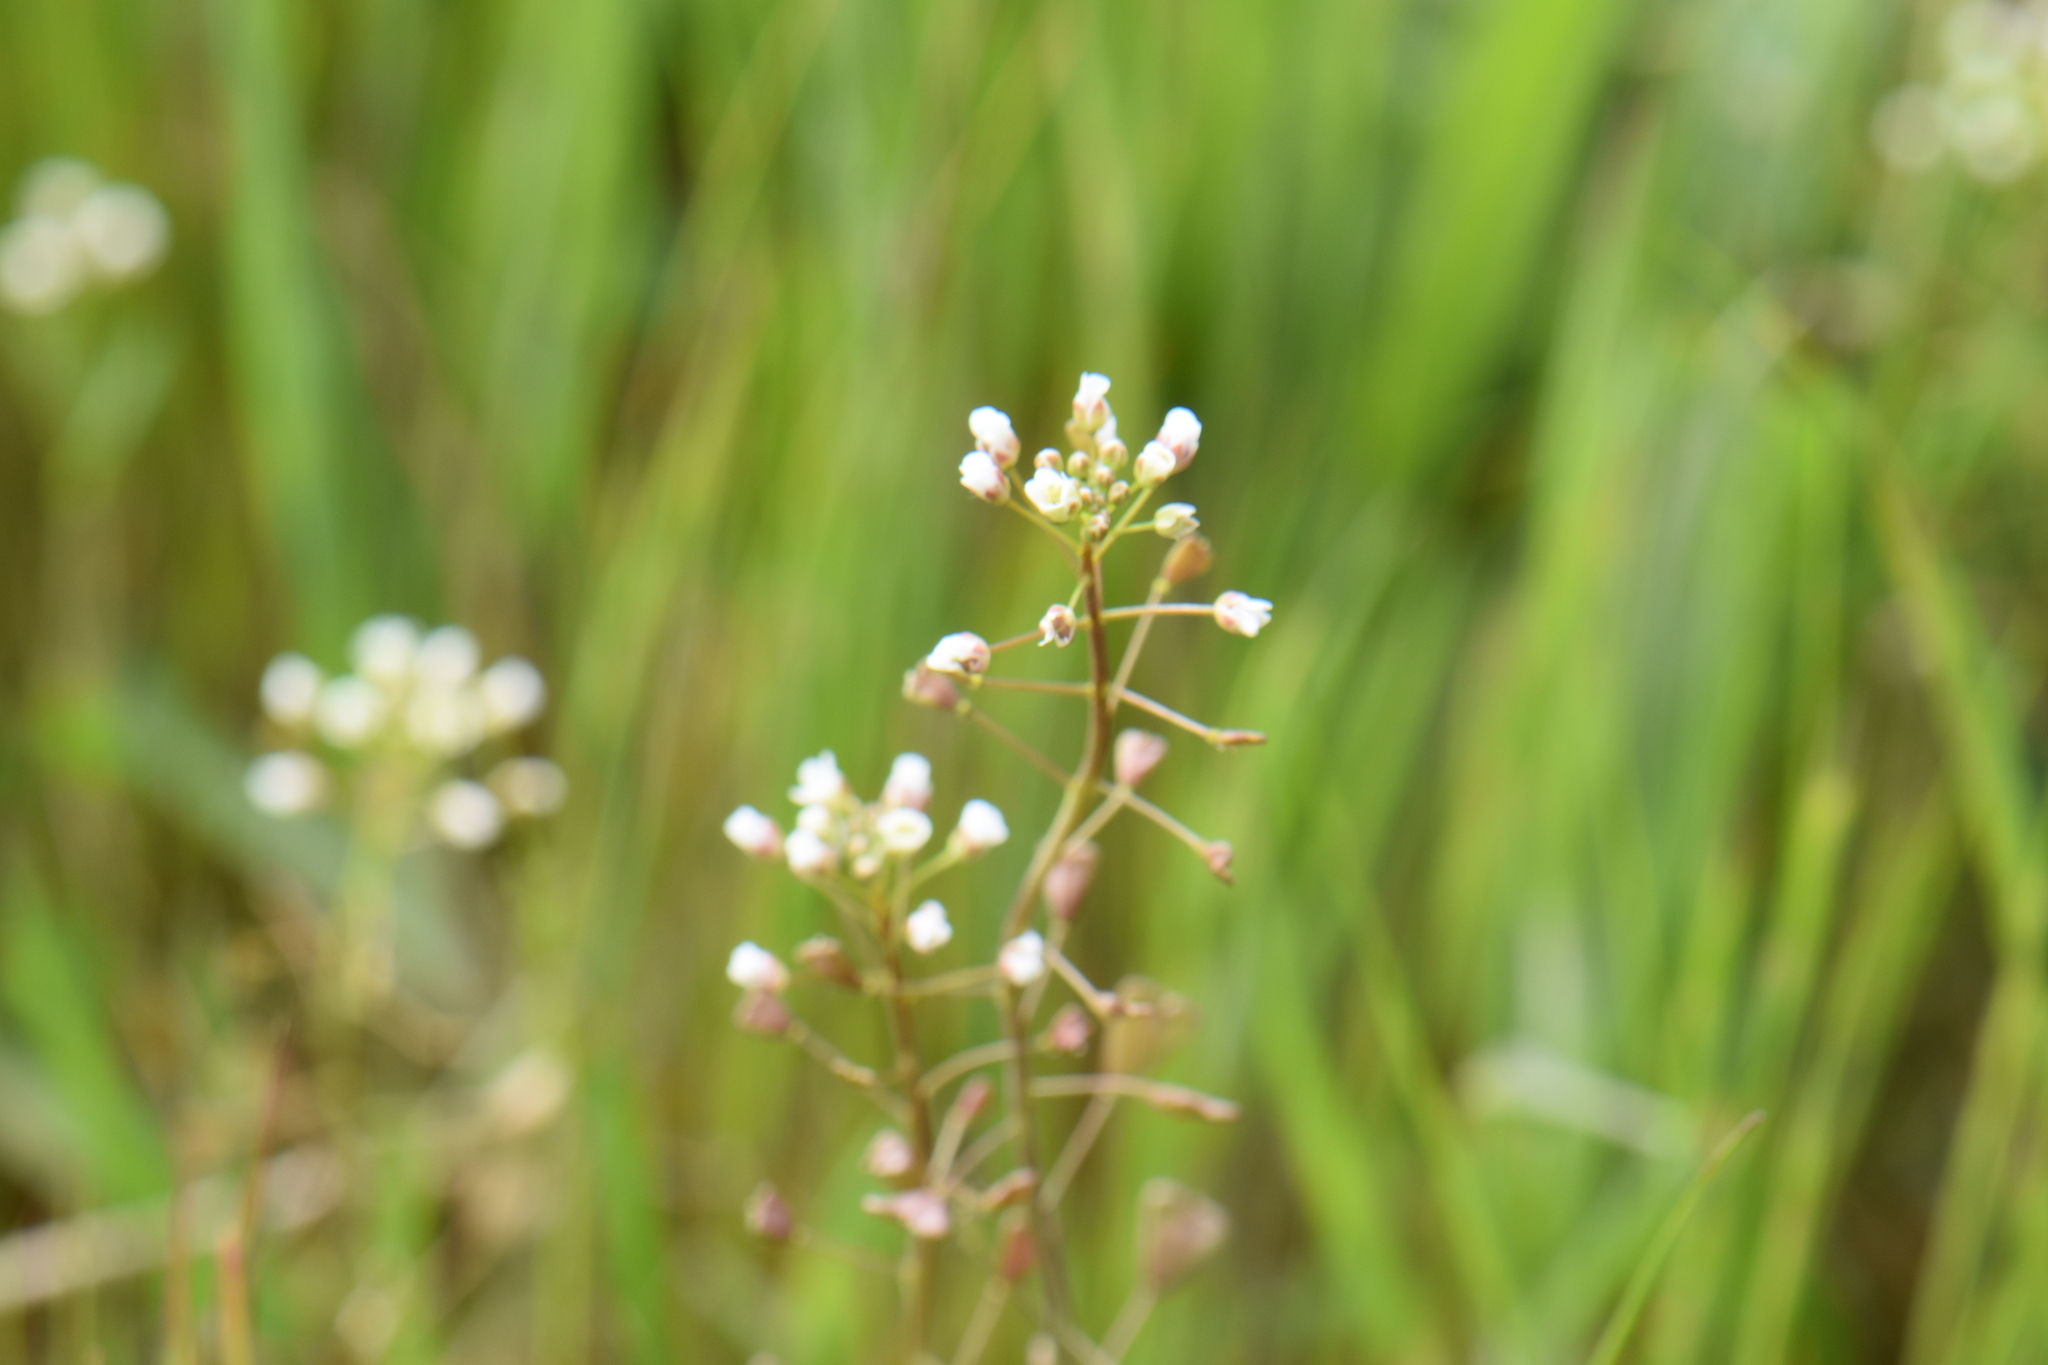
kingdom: Plantae
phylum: Tracheophyta
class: Magnoliopsida
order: Brassicales
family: Brassicaceae
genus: Capsella
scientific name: Capsella bursa-pastoris
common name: Shepherd's purse
